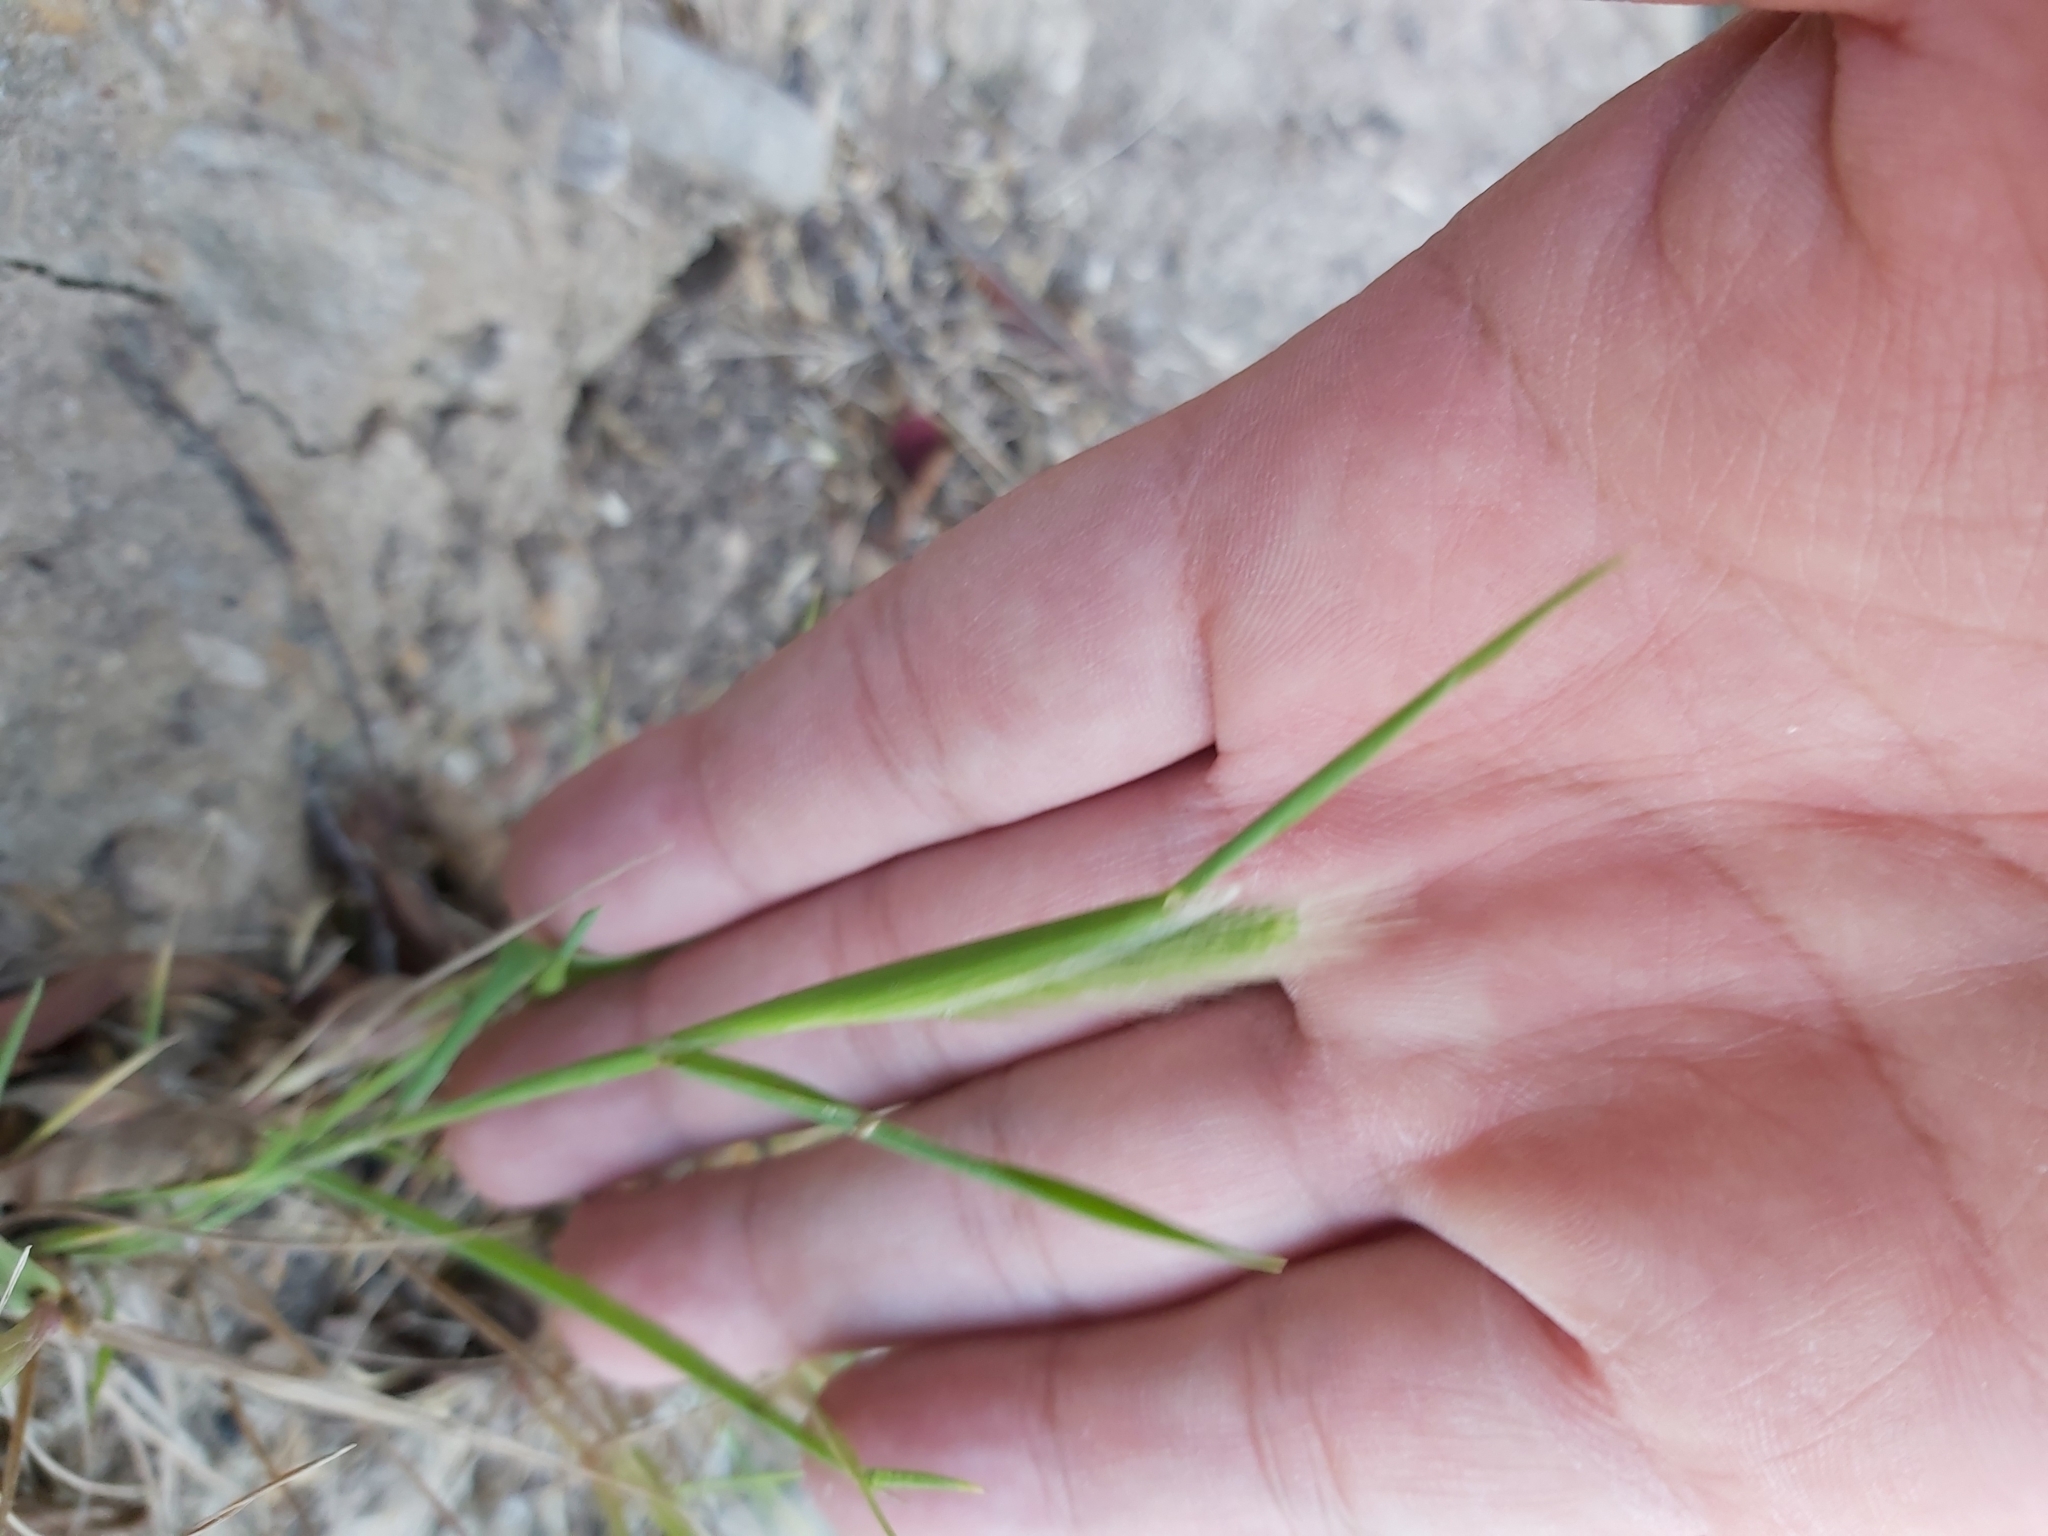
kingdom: Plantae
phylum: Tracheophyta
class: Liliopsida
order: Poales
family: Poaceae
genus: Polypogon
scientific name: Polypogon monspeliensis
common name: Annual rabbitsfoot grass
